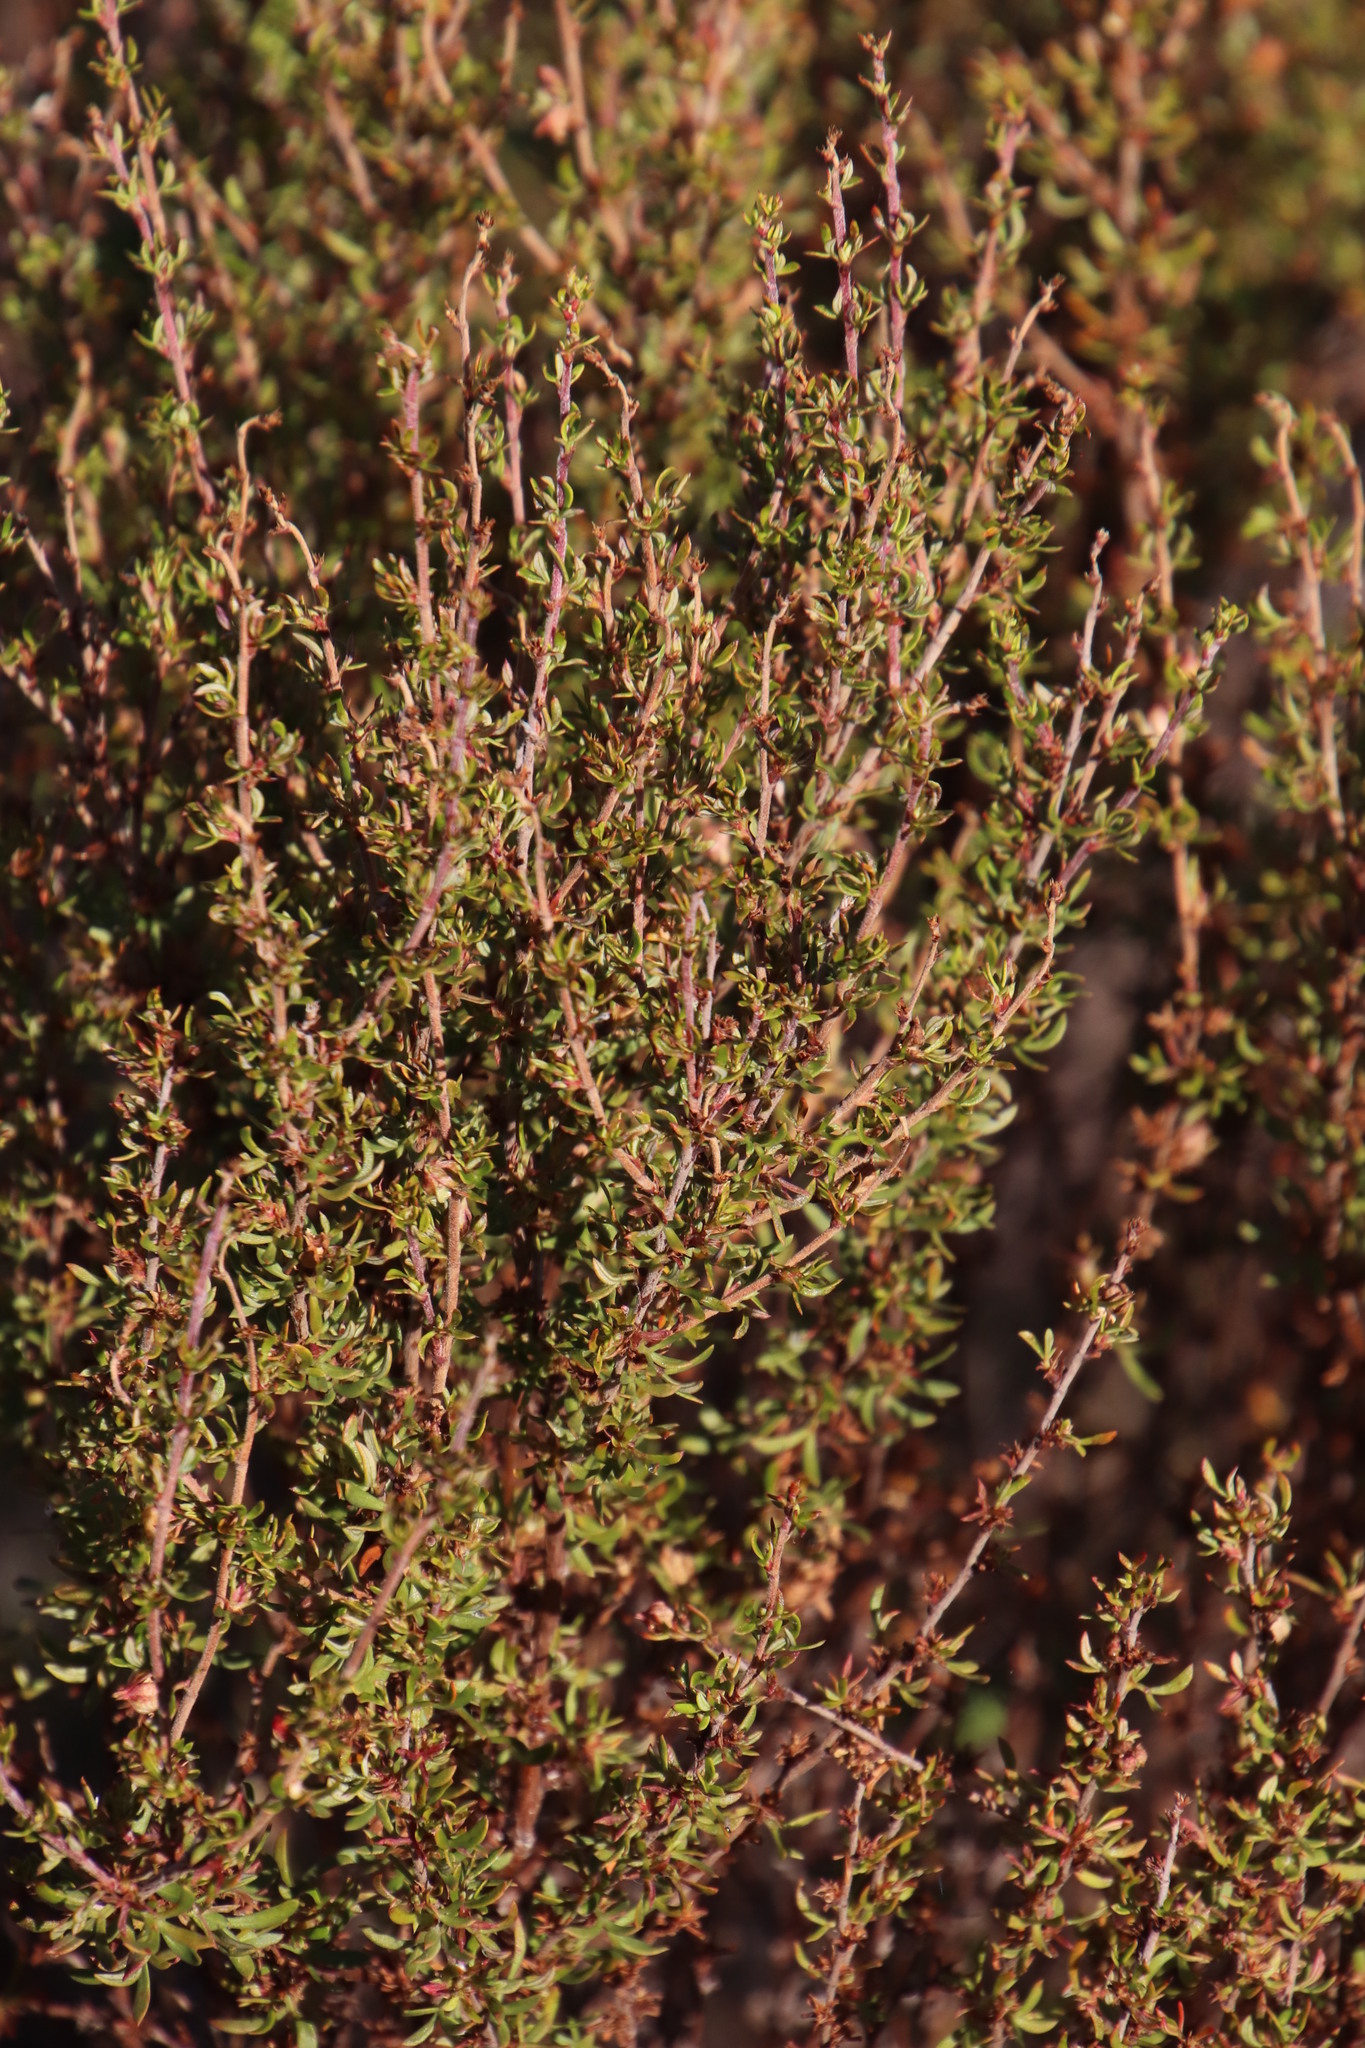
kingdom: Plantae
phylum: Tracheophyta
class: Magnoliopsida
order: Rosales
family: Rosaceae
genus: Cliffortia
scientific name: Cliffortia falcata
